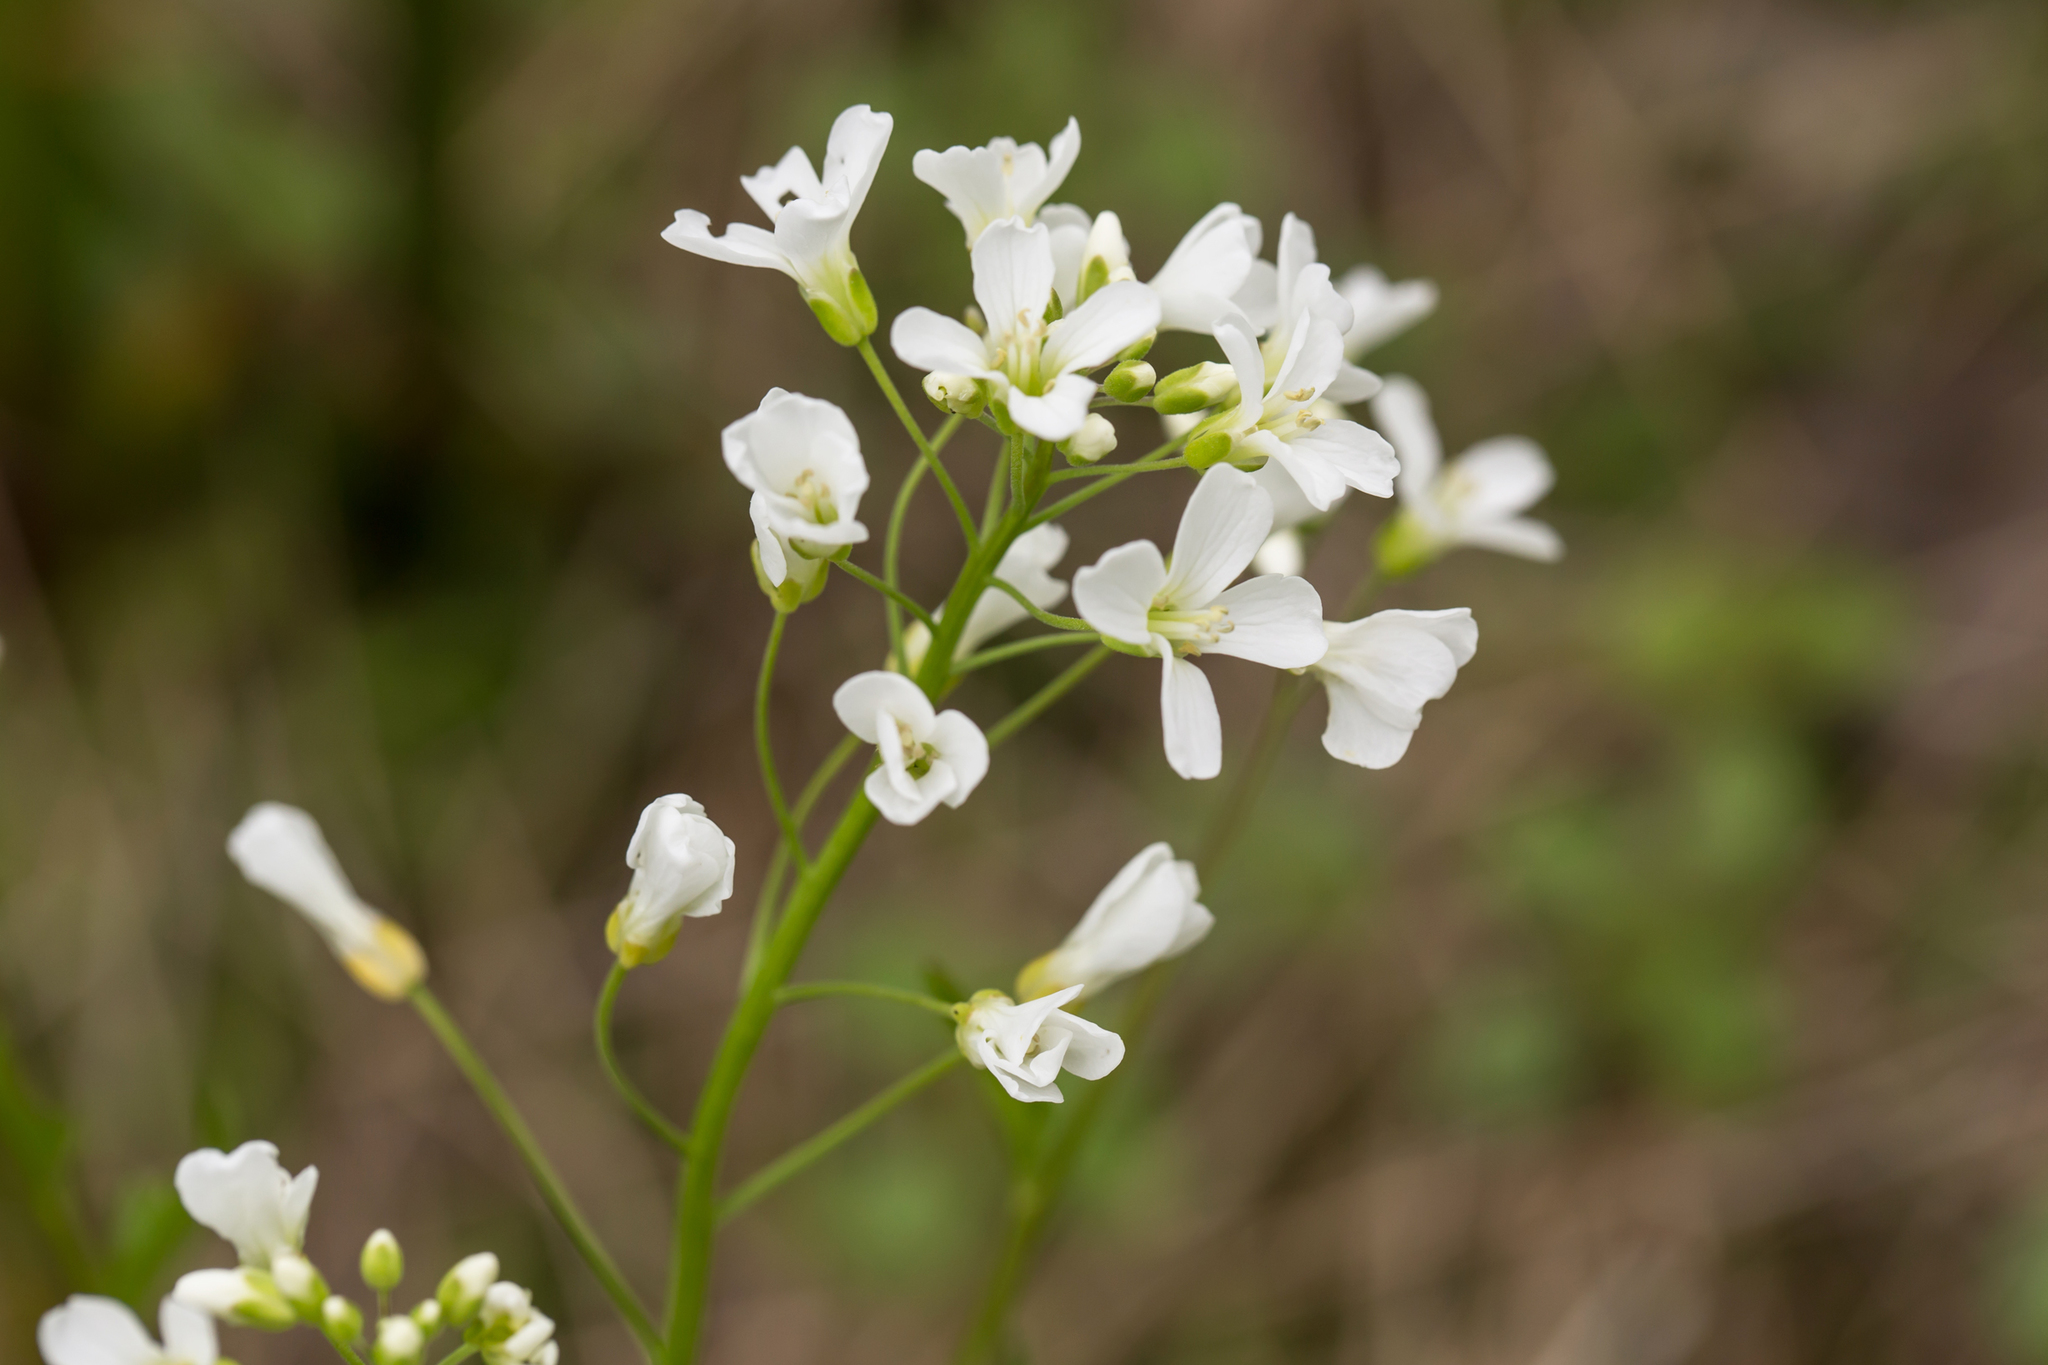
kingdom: Plantae
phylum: Tracheophyta
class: Magnoliopsida
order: Brassicales
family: Brassicaceae
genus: Cardamine
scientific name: Cardamine bulbosa
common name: Spring cress
